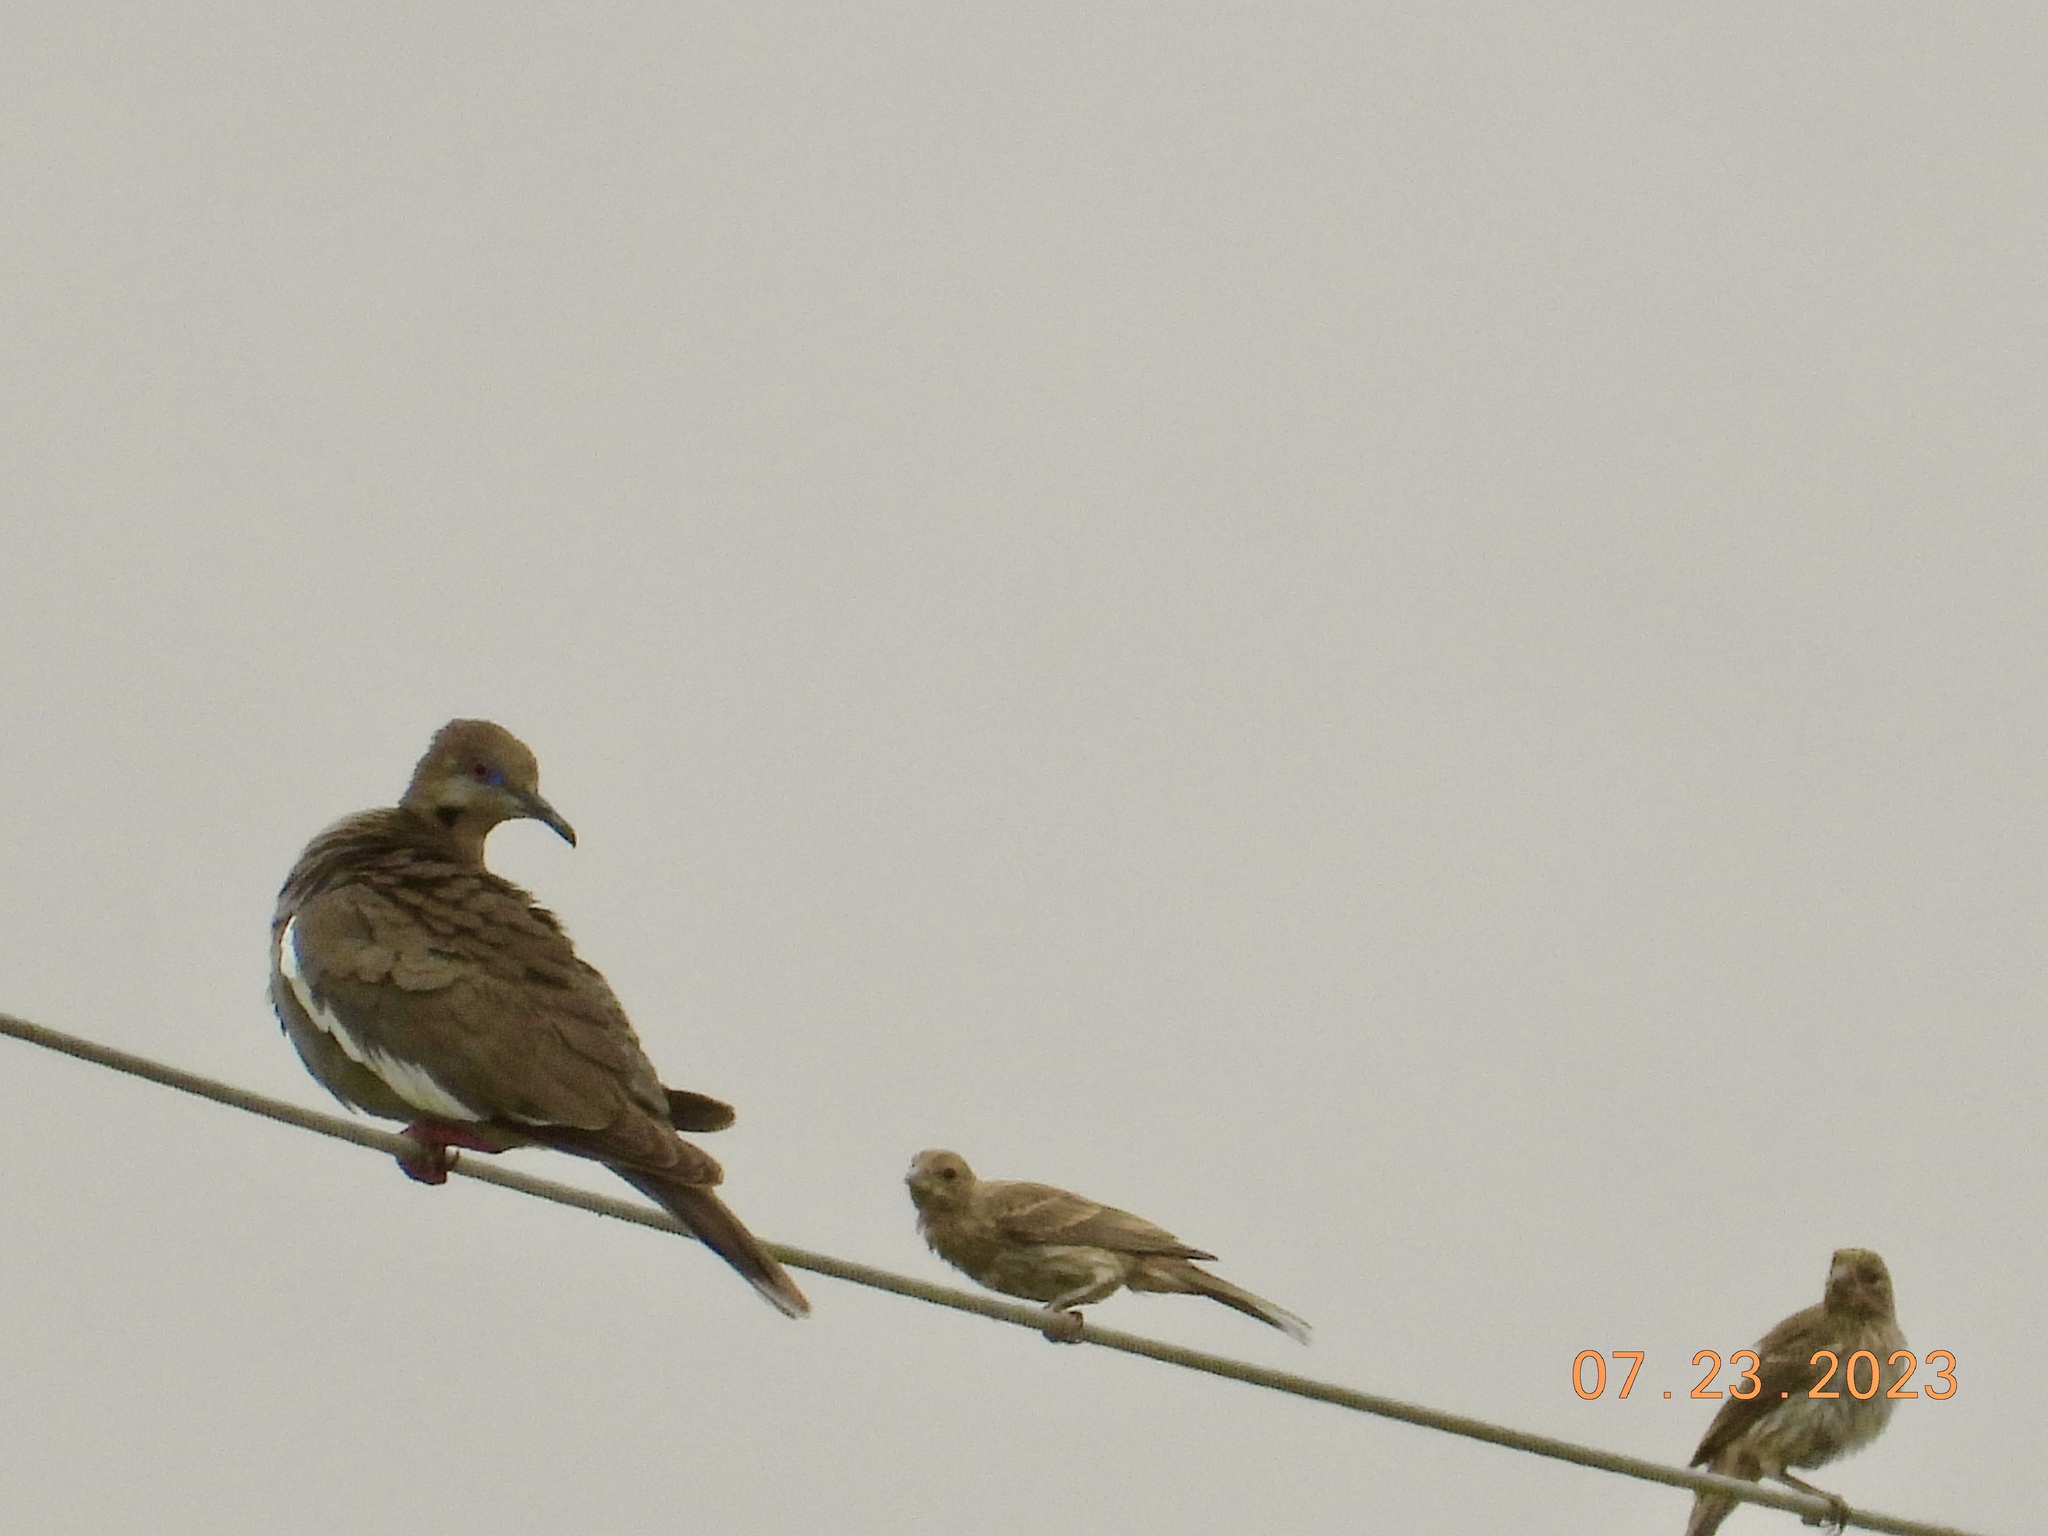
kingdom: Animalia
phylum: Chordata
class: Aves
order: Columbiformes
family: Columbidae
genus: Zenaida
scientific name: Zenaida asiatica
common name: White-winged dove
